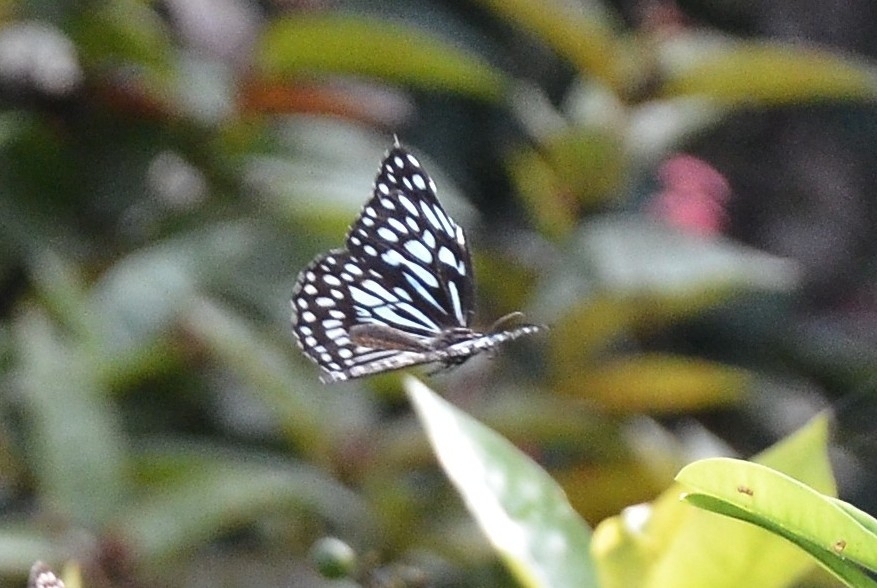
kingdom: Animalia
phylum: Arthropoda
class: Insecta
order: Lepidoptera
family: Nymphalidae
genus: Tirumala
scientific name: Tirumala septentrionis
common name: Dark blue tiger butterfly
